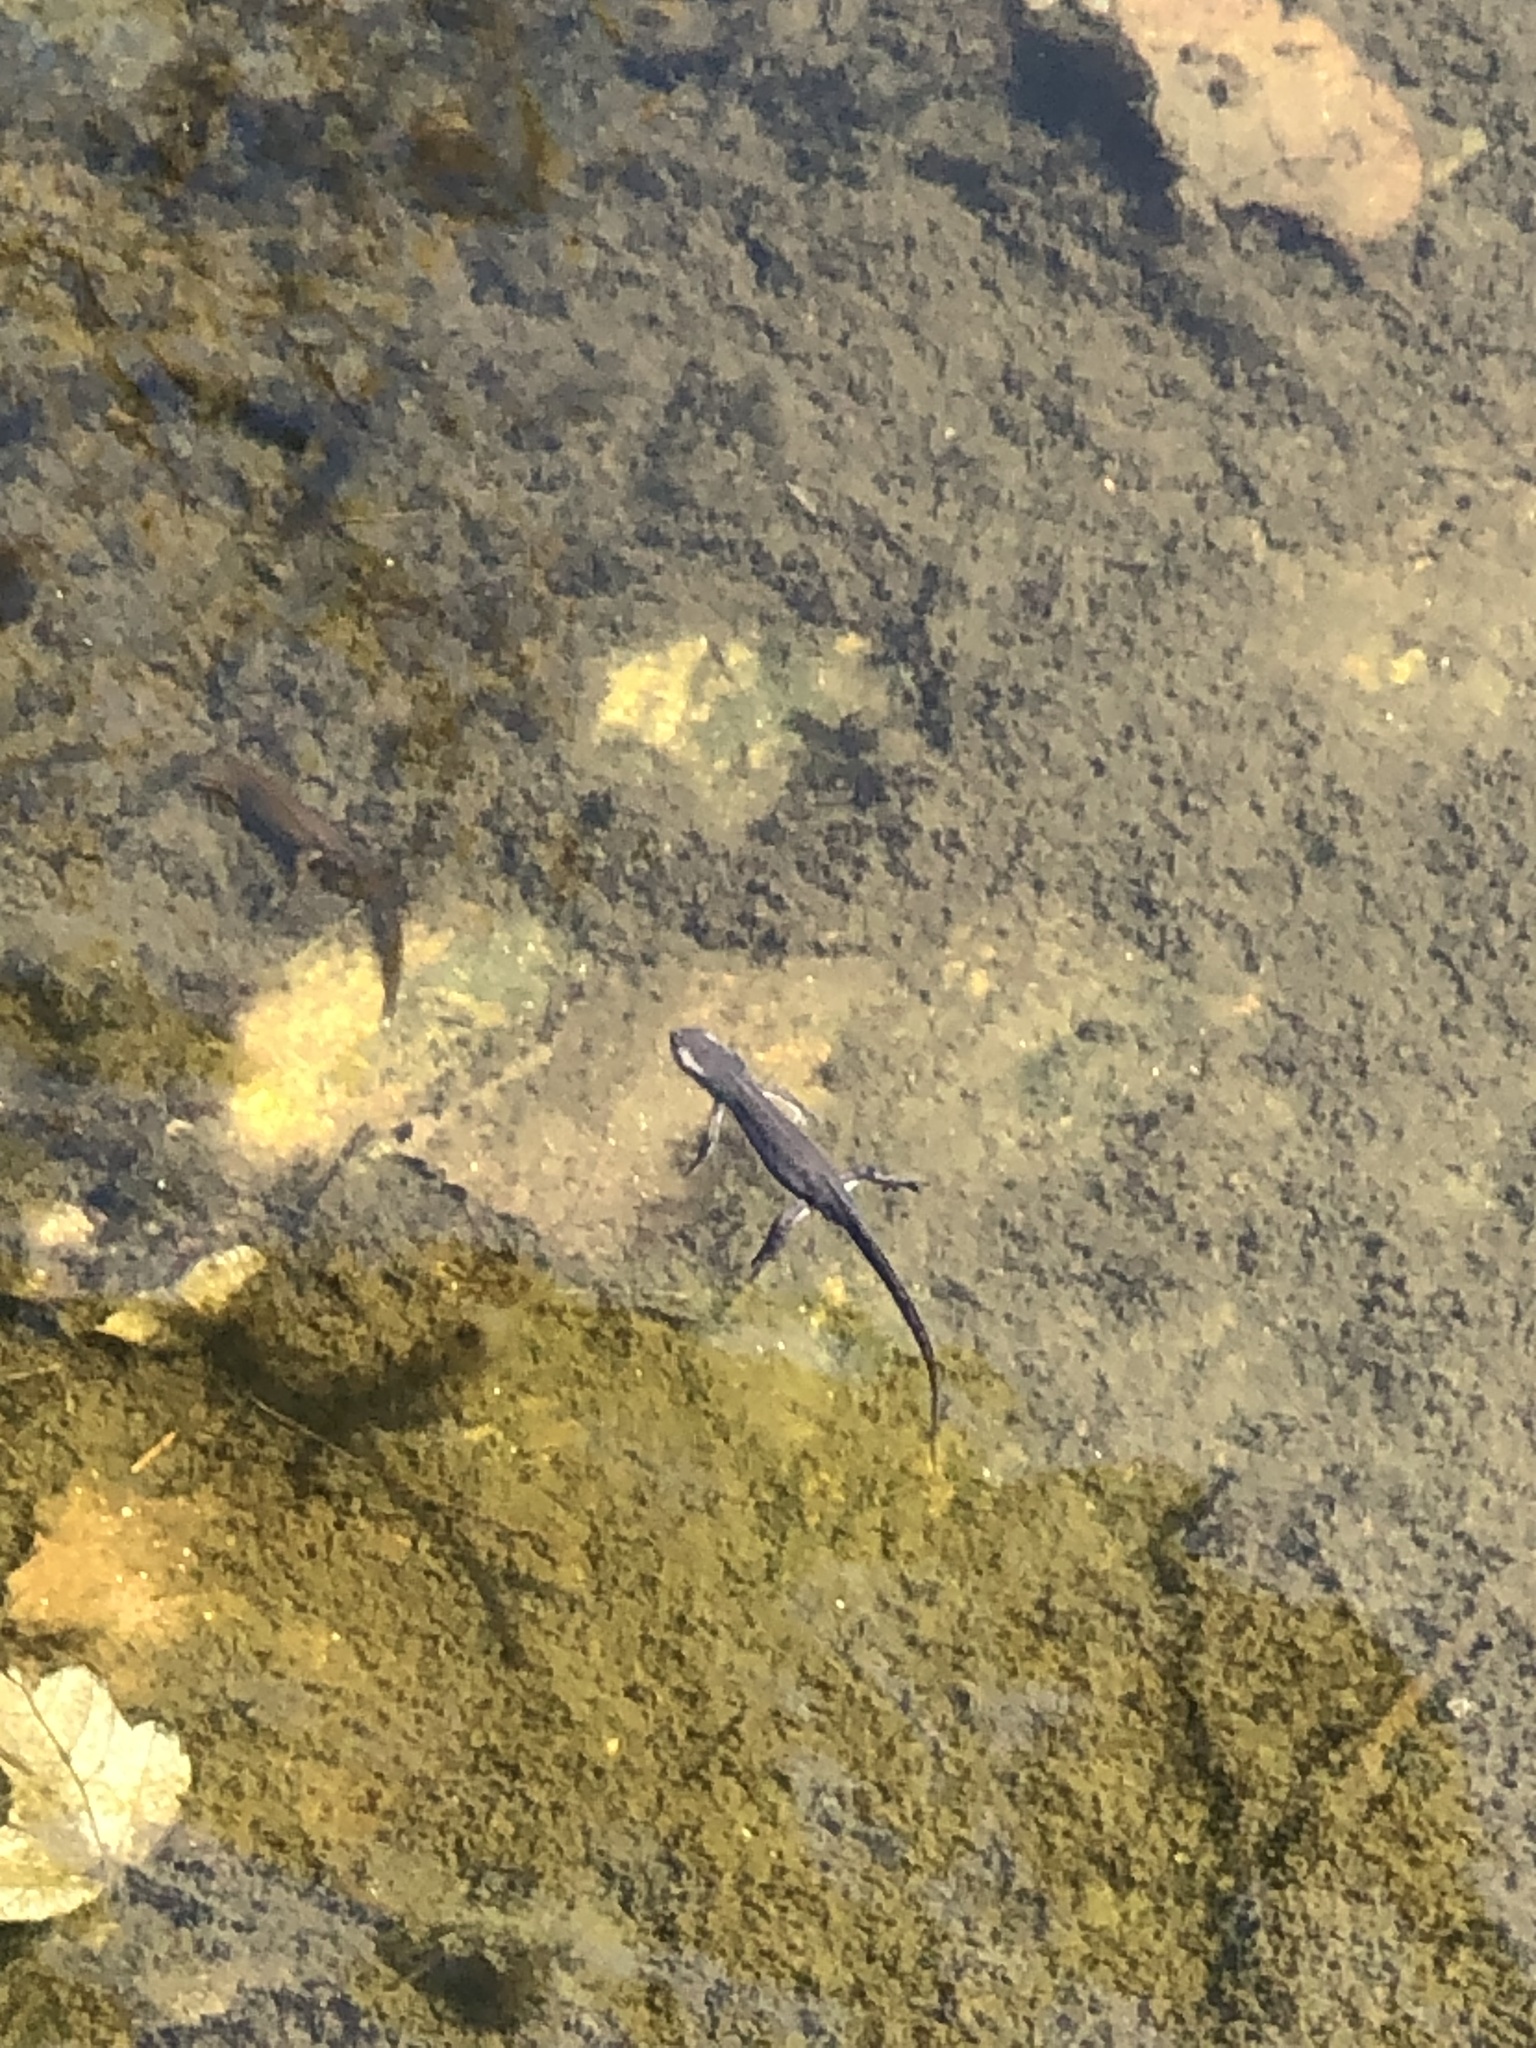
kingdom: Animalia
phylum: Chordata
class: Amphibia
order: Caudata
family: Salamandridae
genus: Notophthalmus
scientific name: Notophthalmus viridescens
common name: Eastern newt
